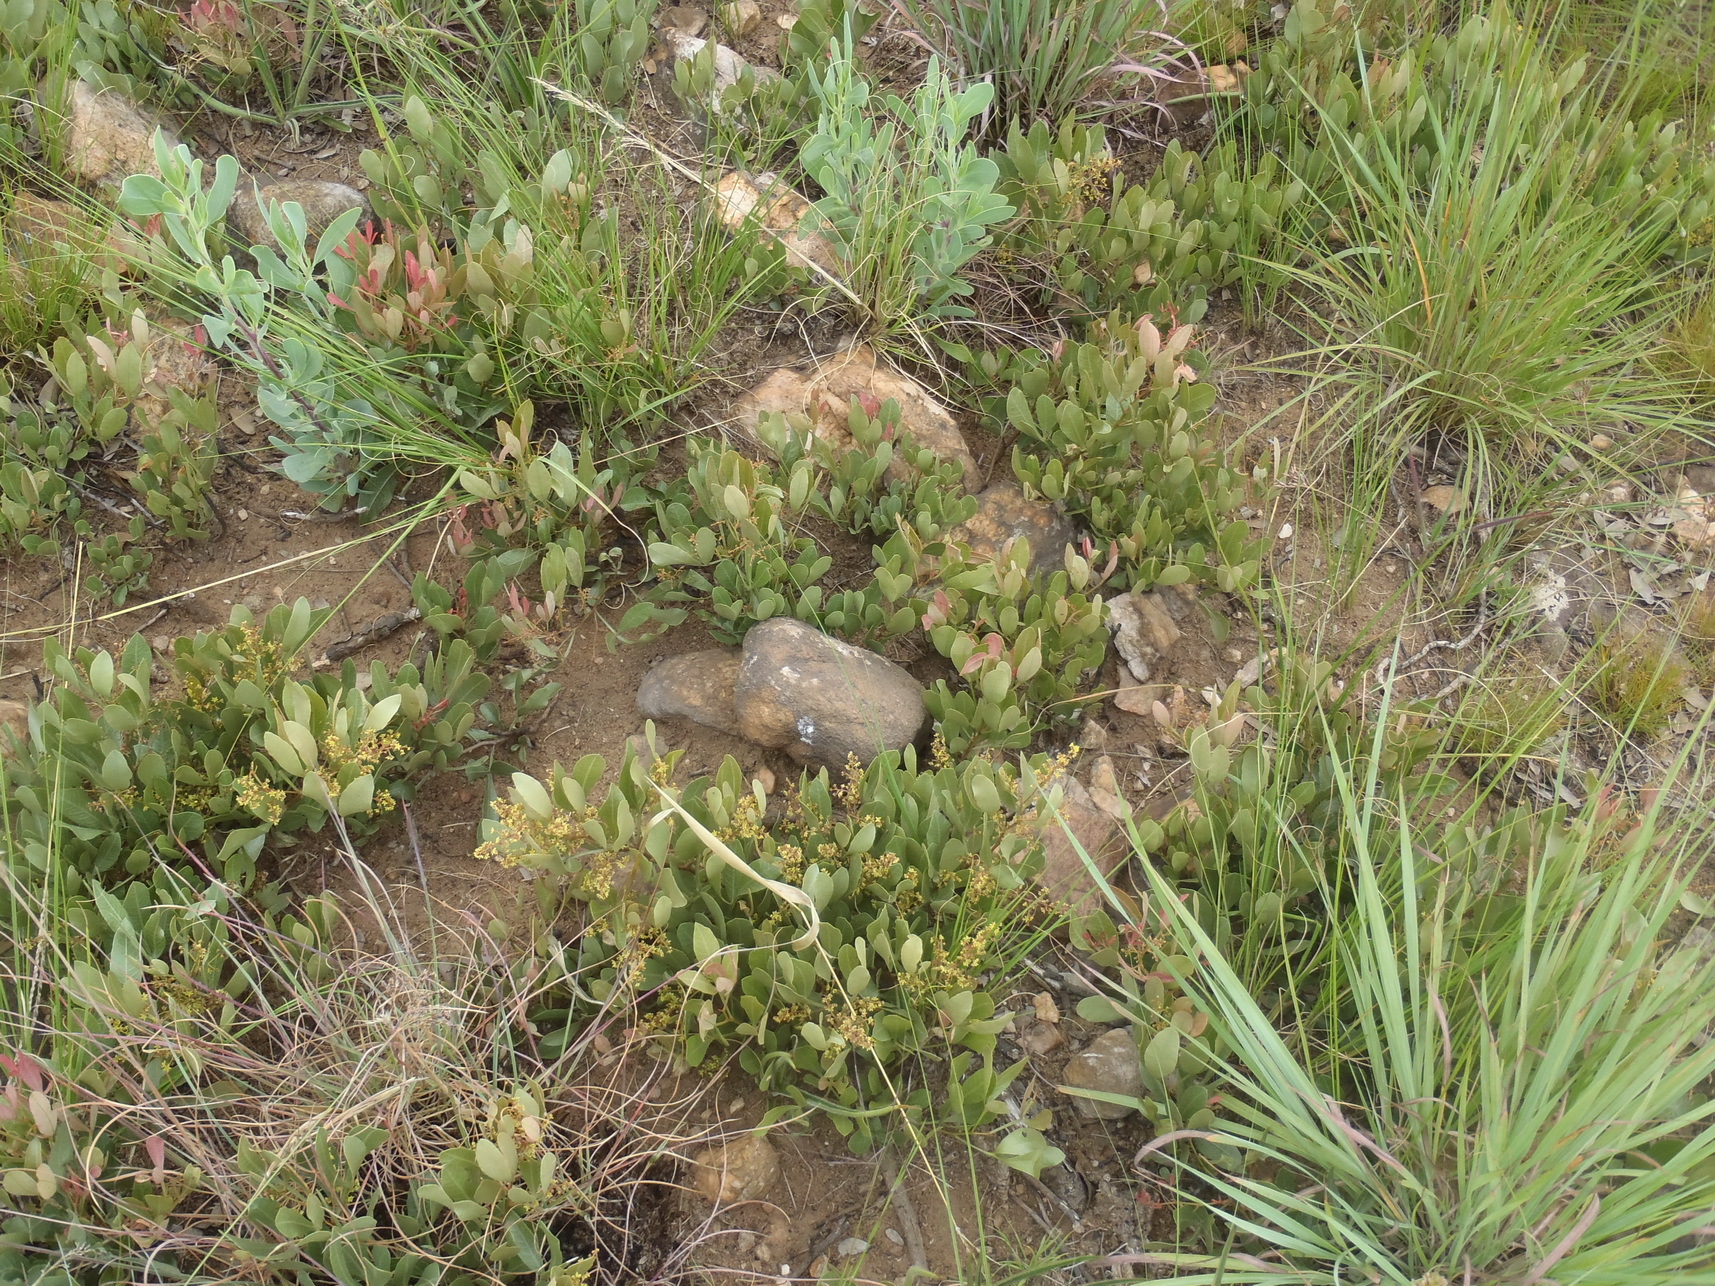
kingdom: Plantae
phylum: Tracheophyta
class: Magnoliopsida
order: Sapindales
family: Anacardiaceae
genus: Searsia
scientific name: Searsia magalismontana
